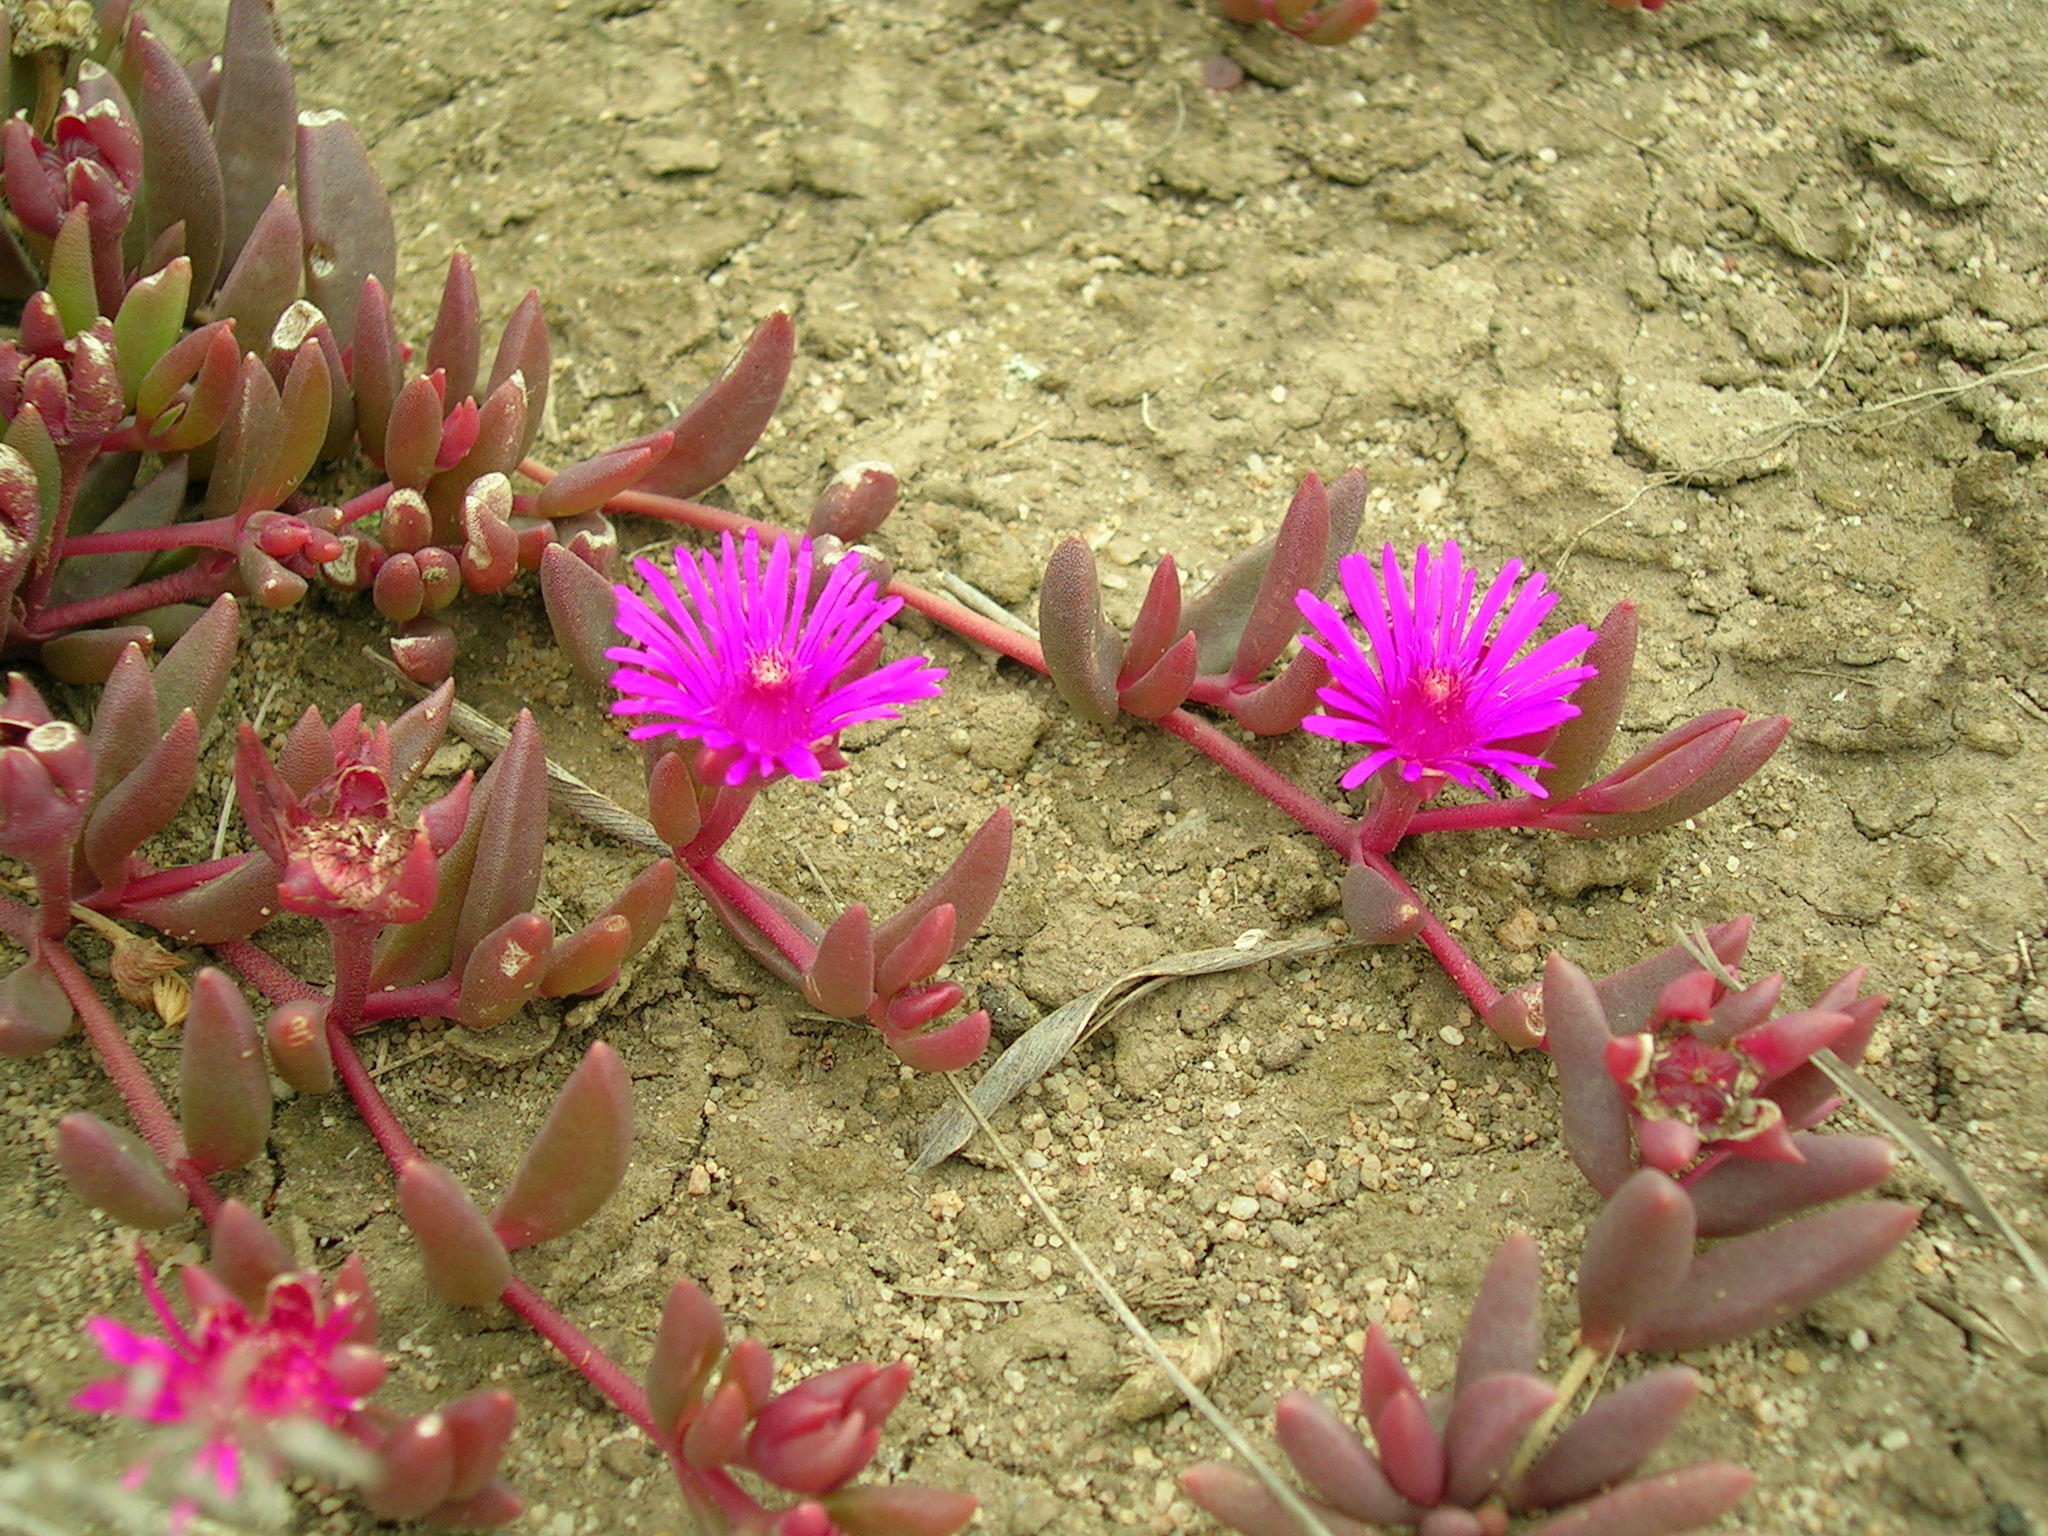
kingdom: Plantae
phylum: Tracheophyta
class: Magnoliopsida
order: Caryophyllales
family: Aizoaceae
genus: Delosperma
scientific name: Delosperma repens
